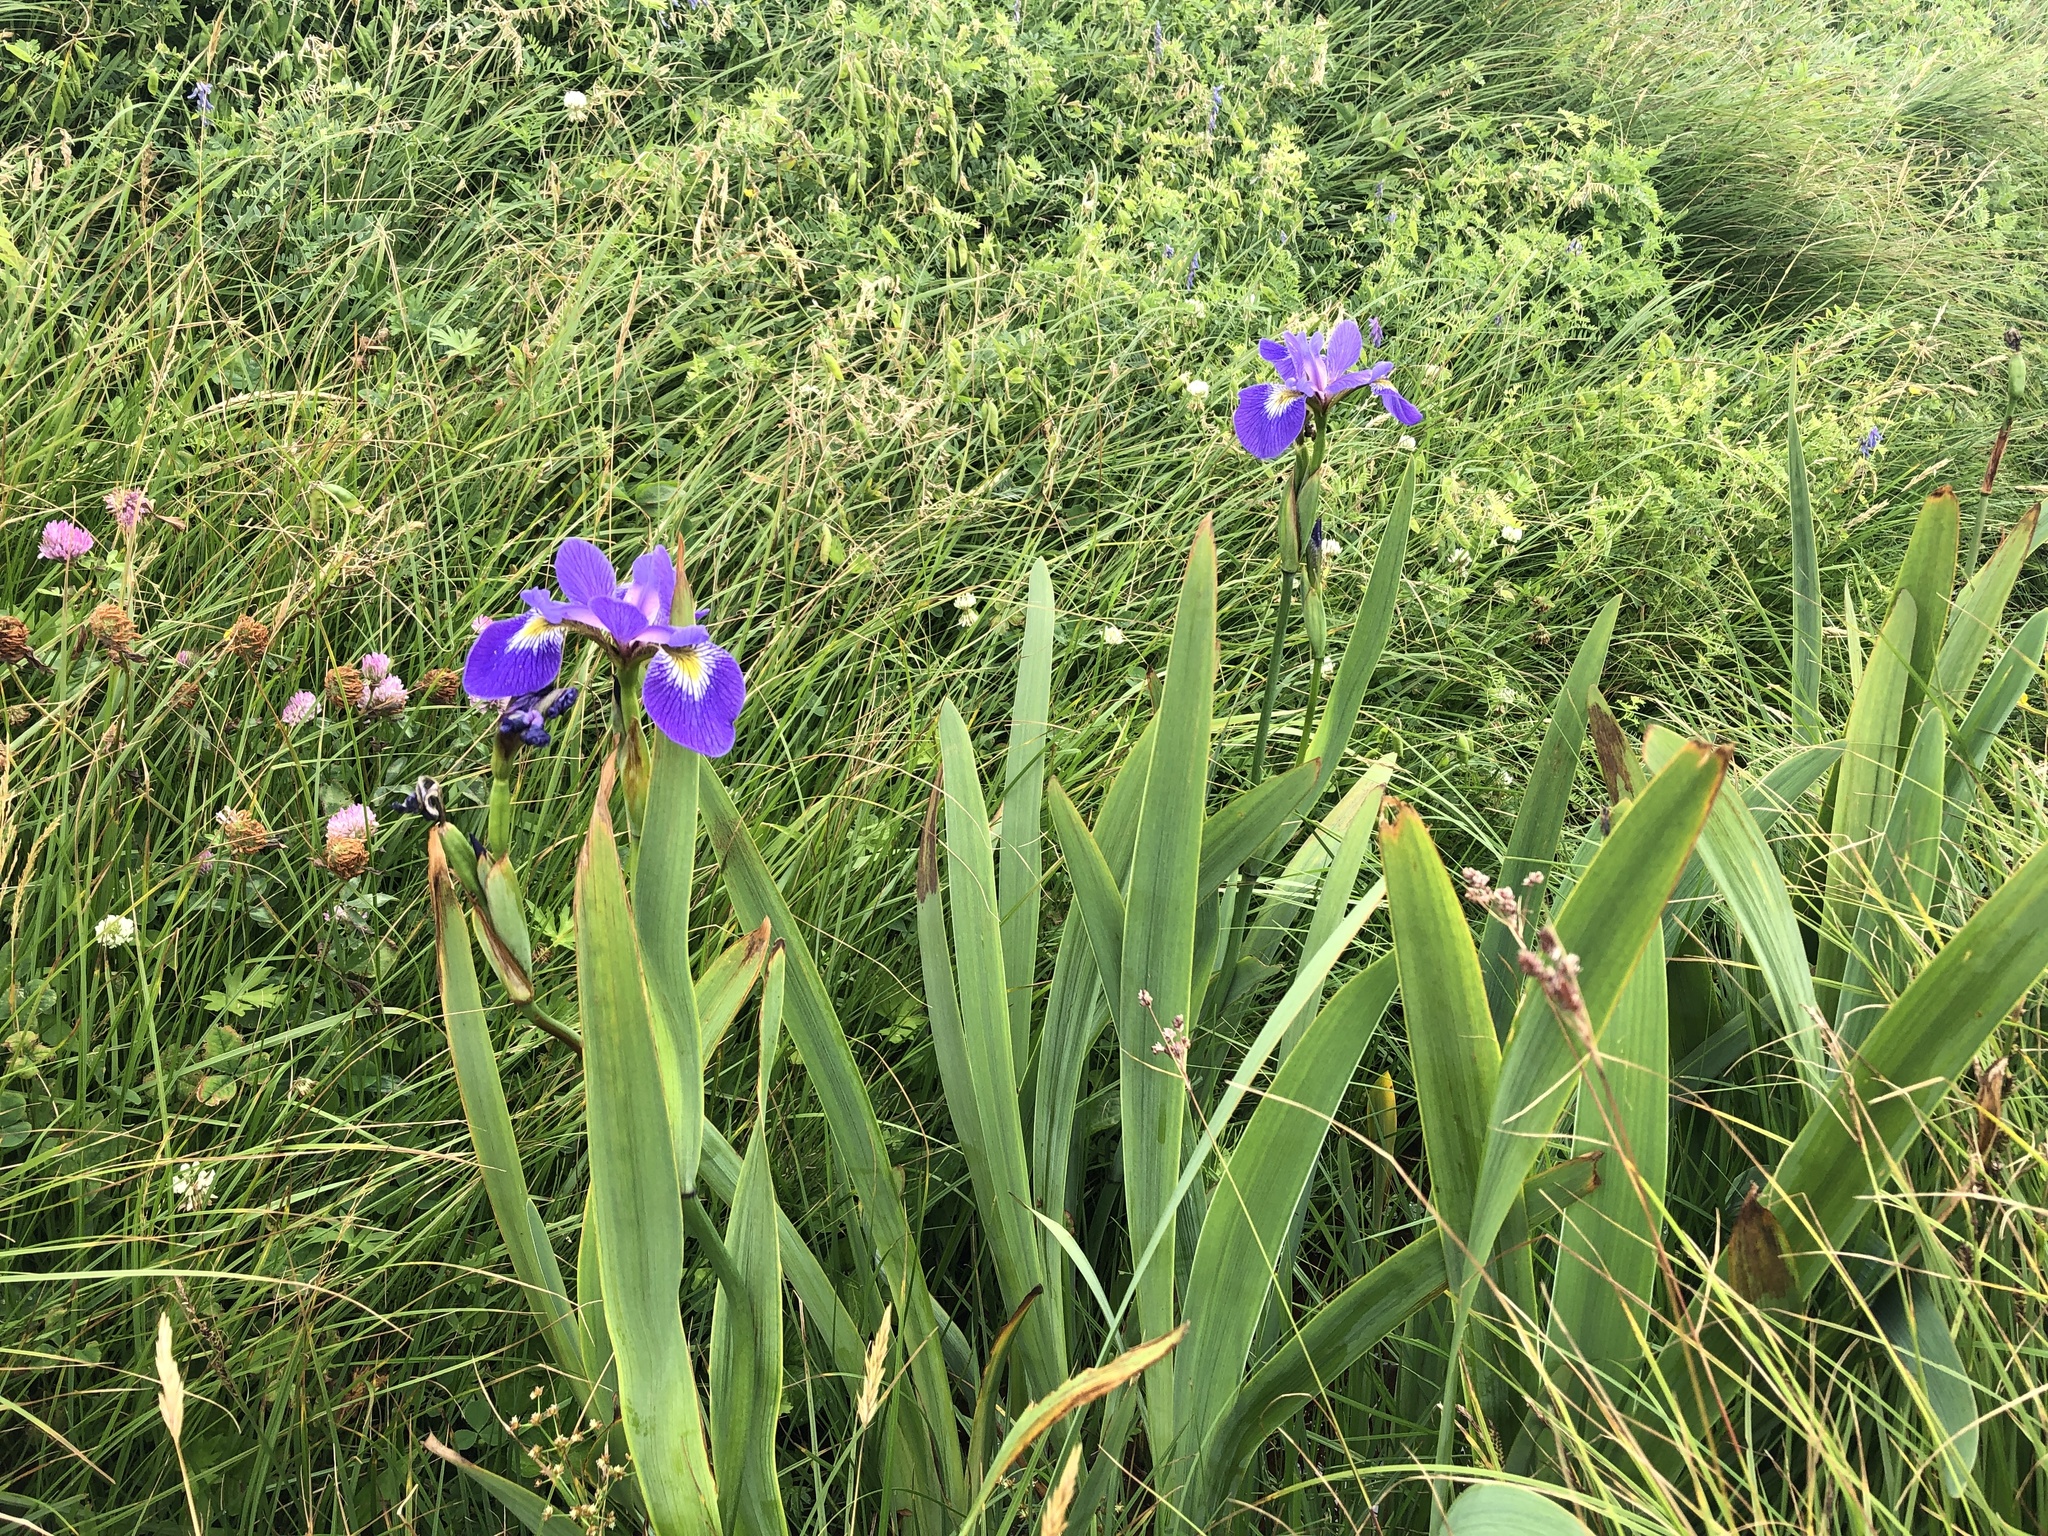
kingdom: Plantae
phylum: Tracheophyta
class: Liliopsida
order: Asparagales
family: Iridaceae
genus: Iris
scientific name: Iris versicolor
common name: Purple iris
